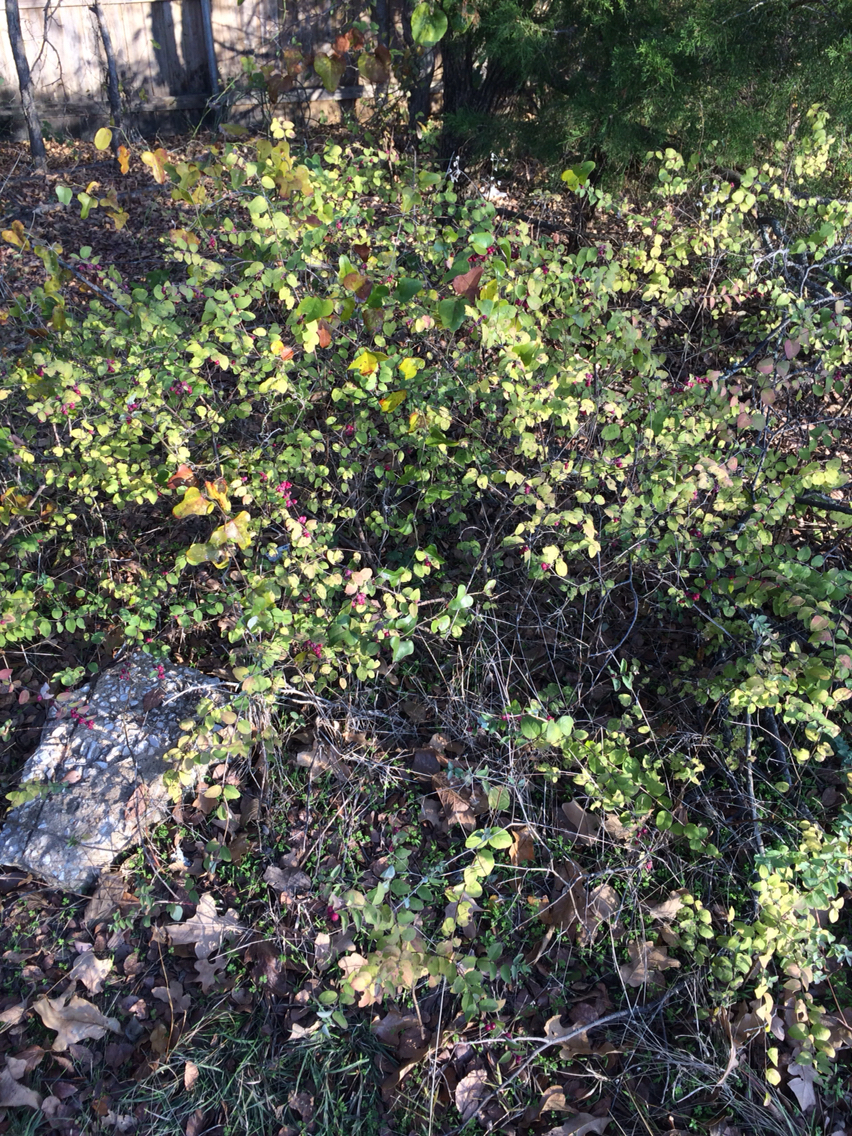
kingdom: Plantae
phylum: Tracheophyta
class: Magnoliopsida
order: Dipsacales
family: Caprifoliaceae
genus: Symphoricarpos
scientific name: Symphoricarpos orbiculatus
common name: Coralberry
